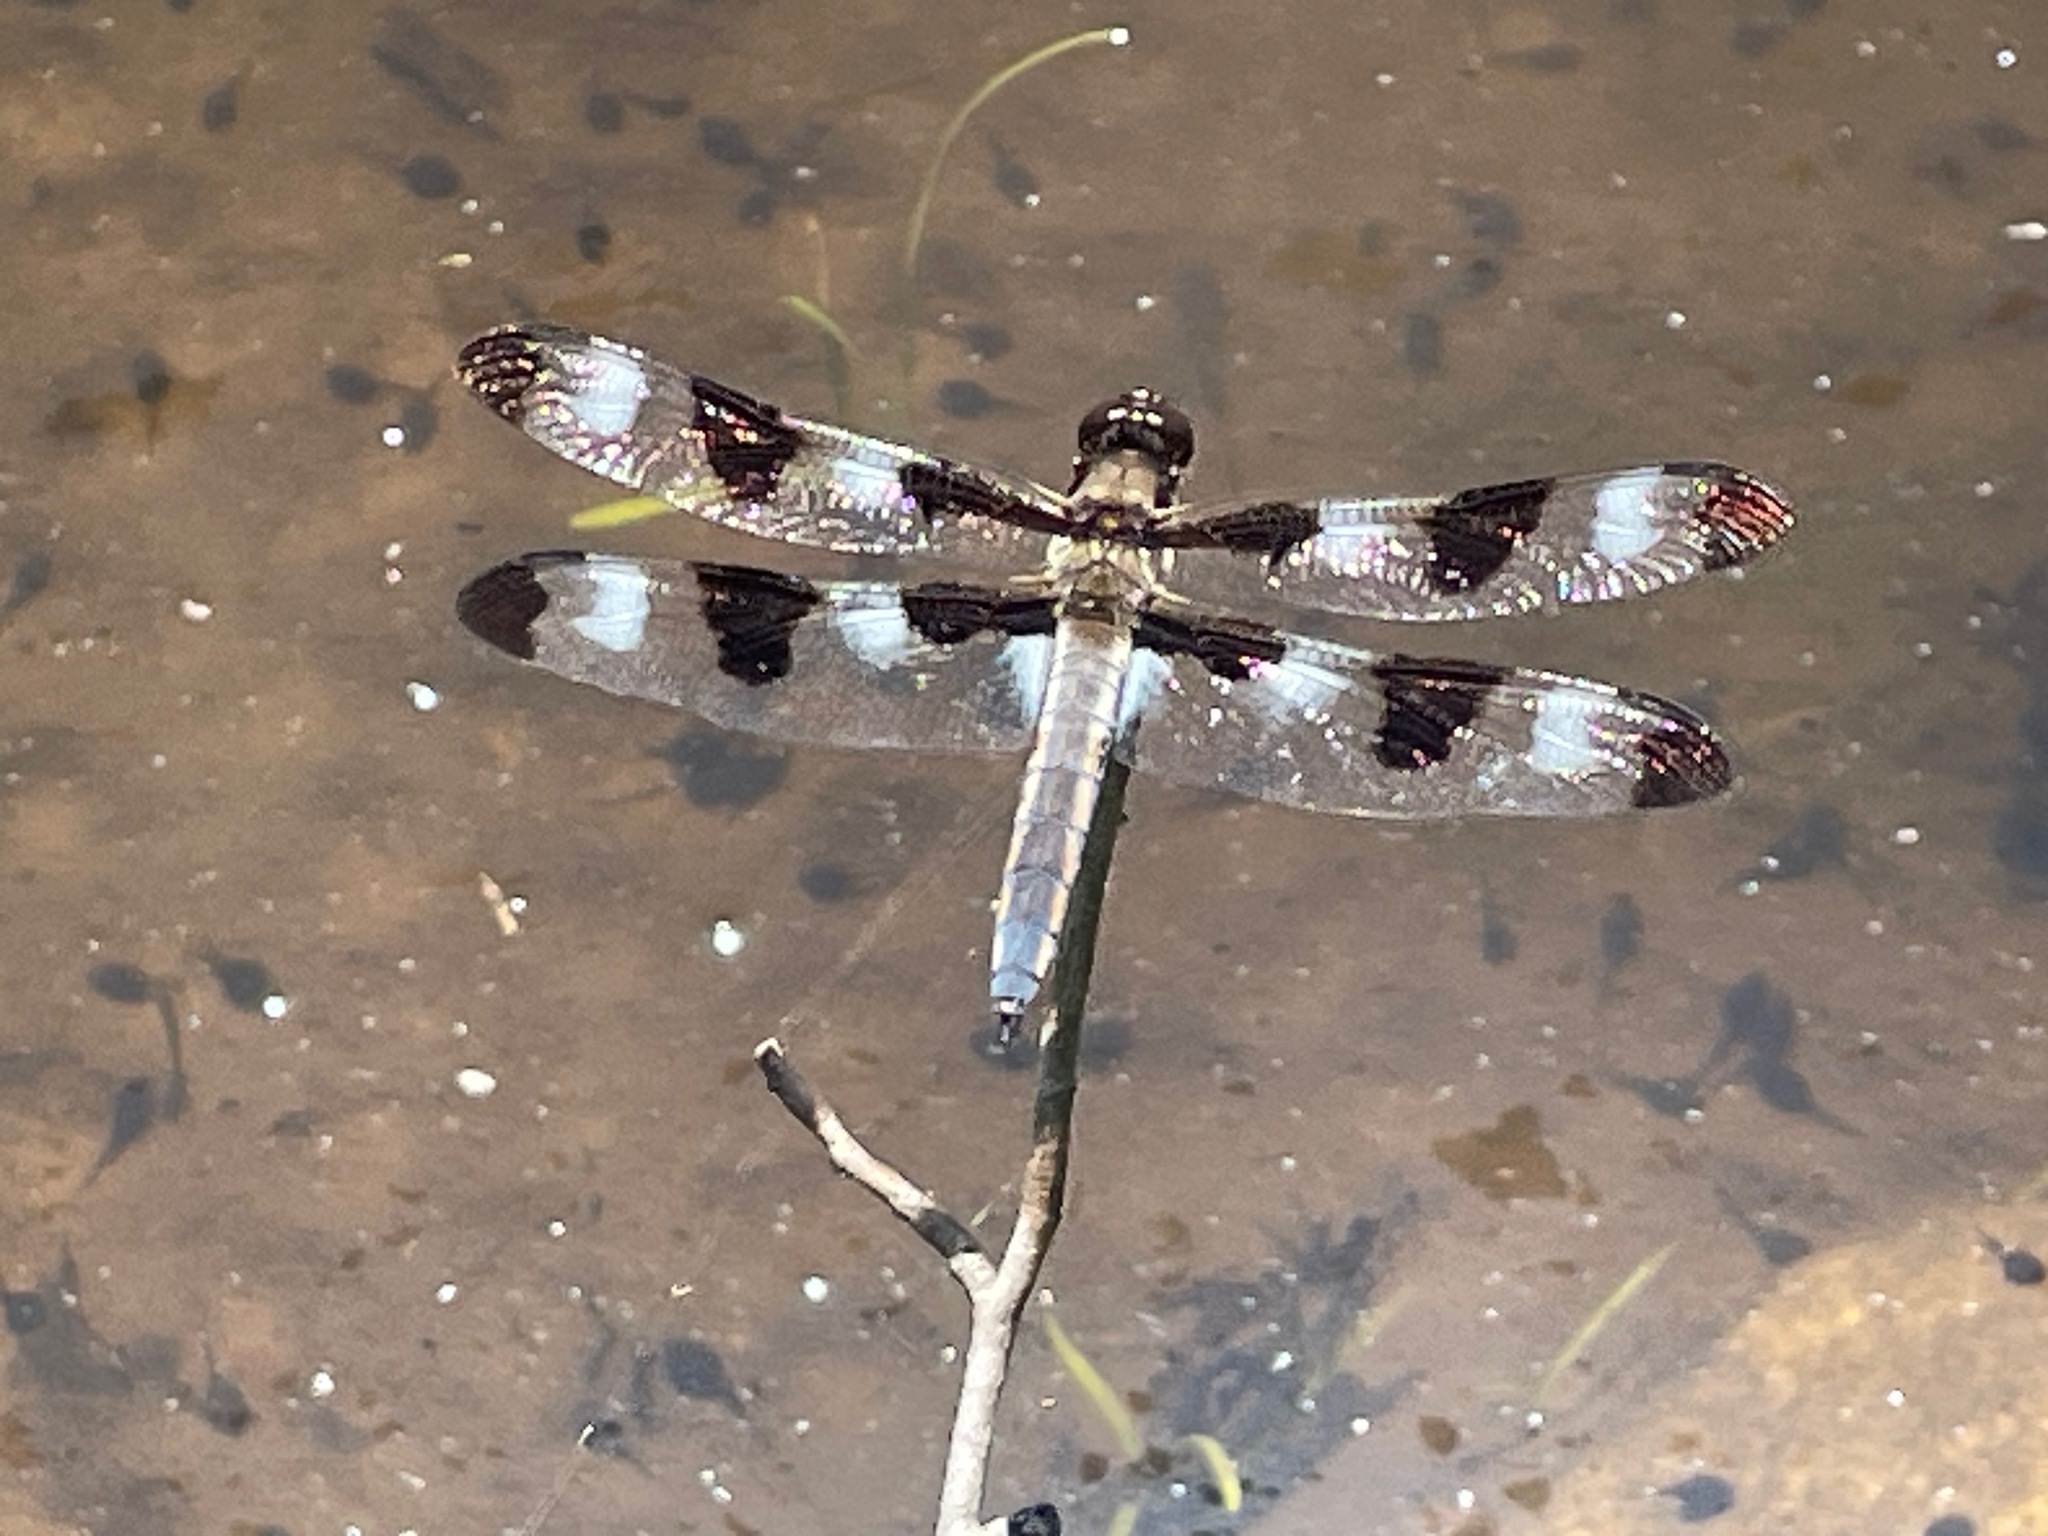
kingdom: Animalia
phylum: Arthropoda
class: Insecta
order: Odonata
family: Libellulidae
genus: Libellula
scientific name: Libellula pulchella
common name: Twelve-spotted skimmer
